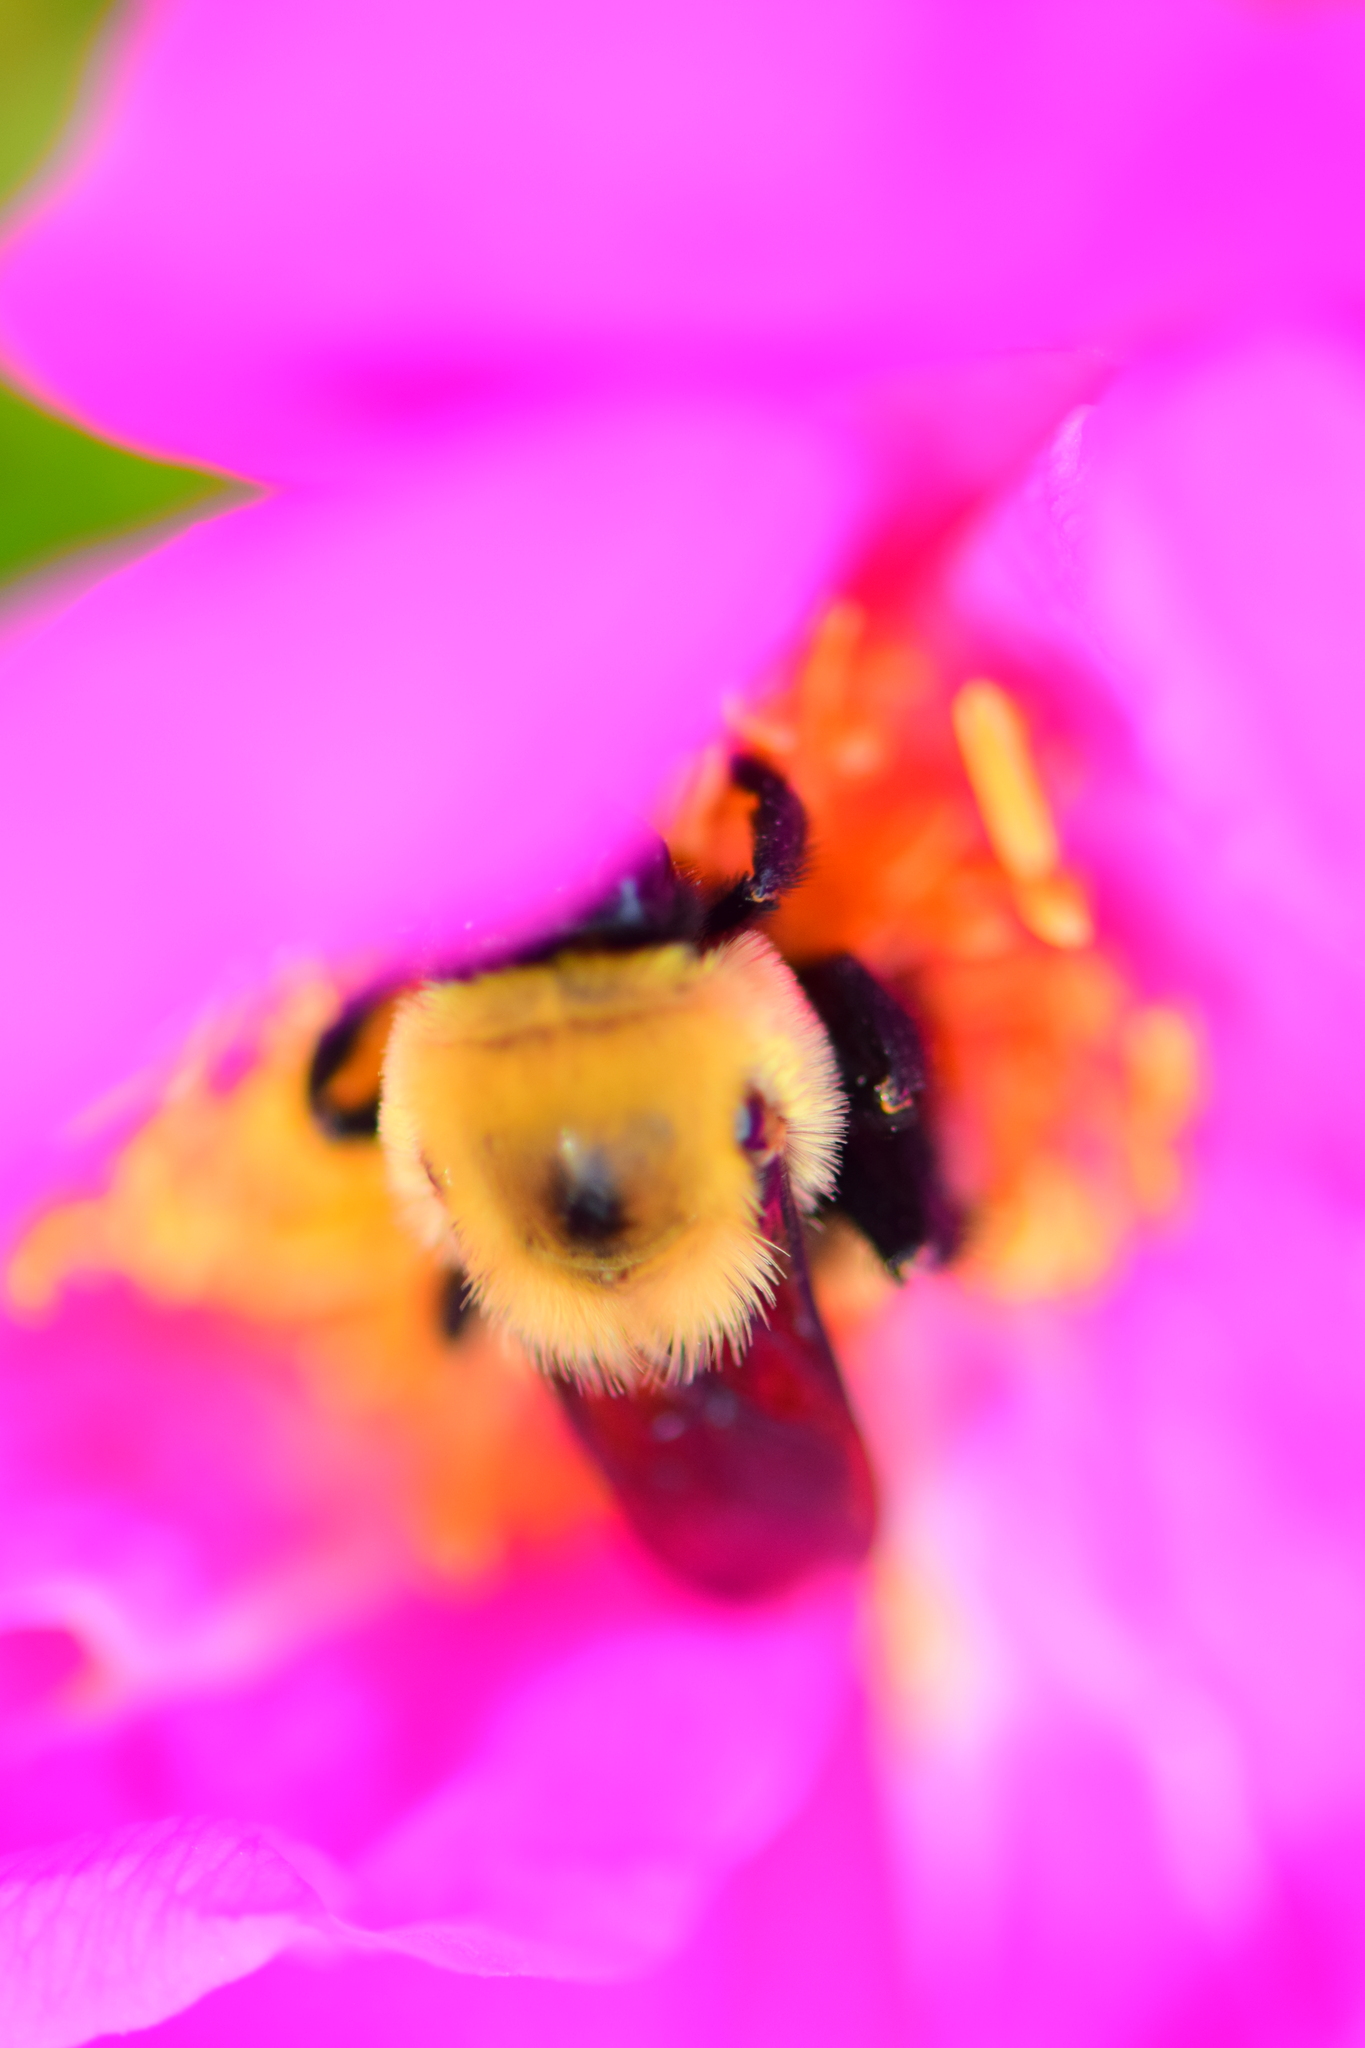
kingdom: Animalia
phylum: Arthropoda
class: Insecta
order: Hymenoptera
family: Apidae
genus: Bombus
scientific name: Bombus griseocollis
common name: Brown-belted bumble bee
